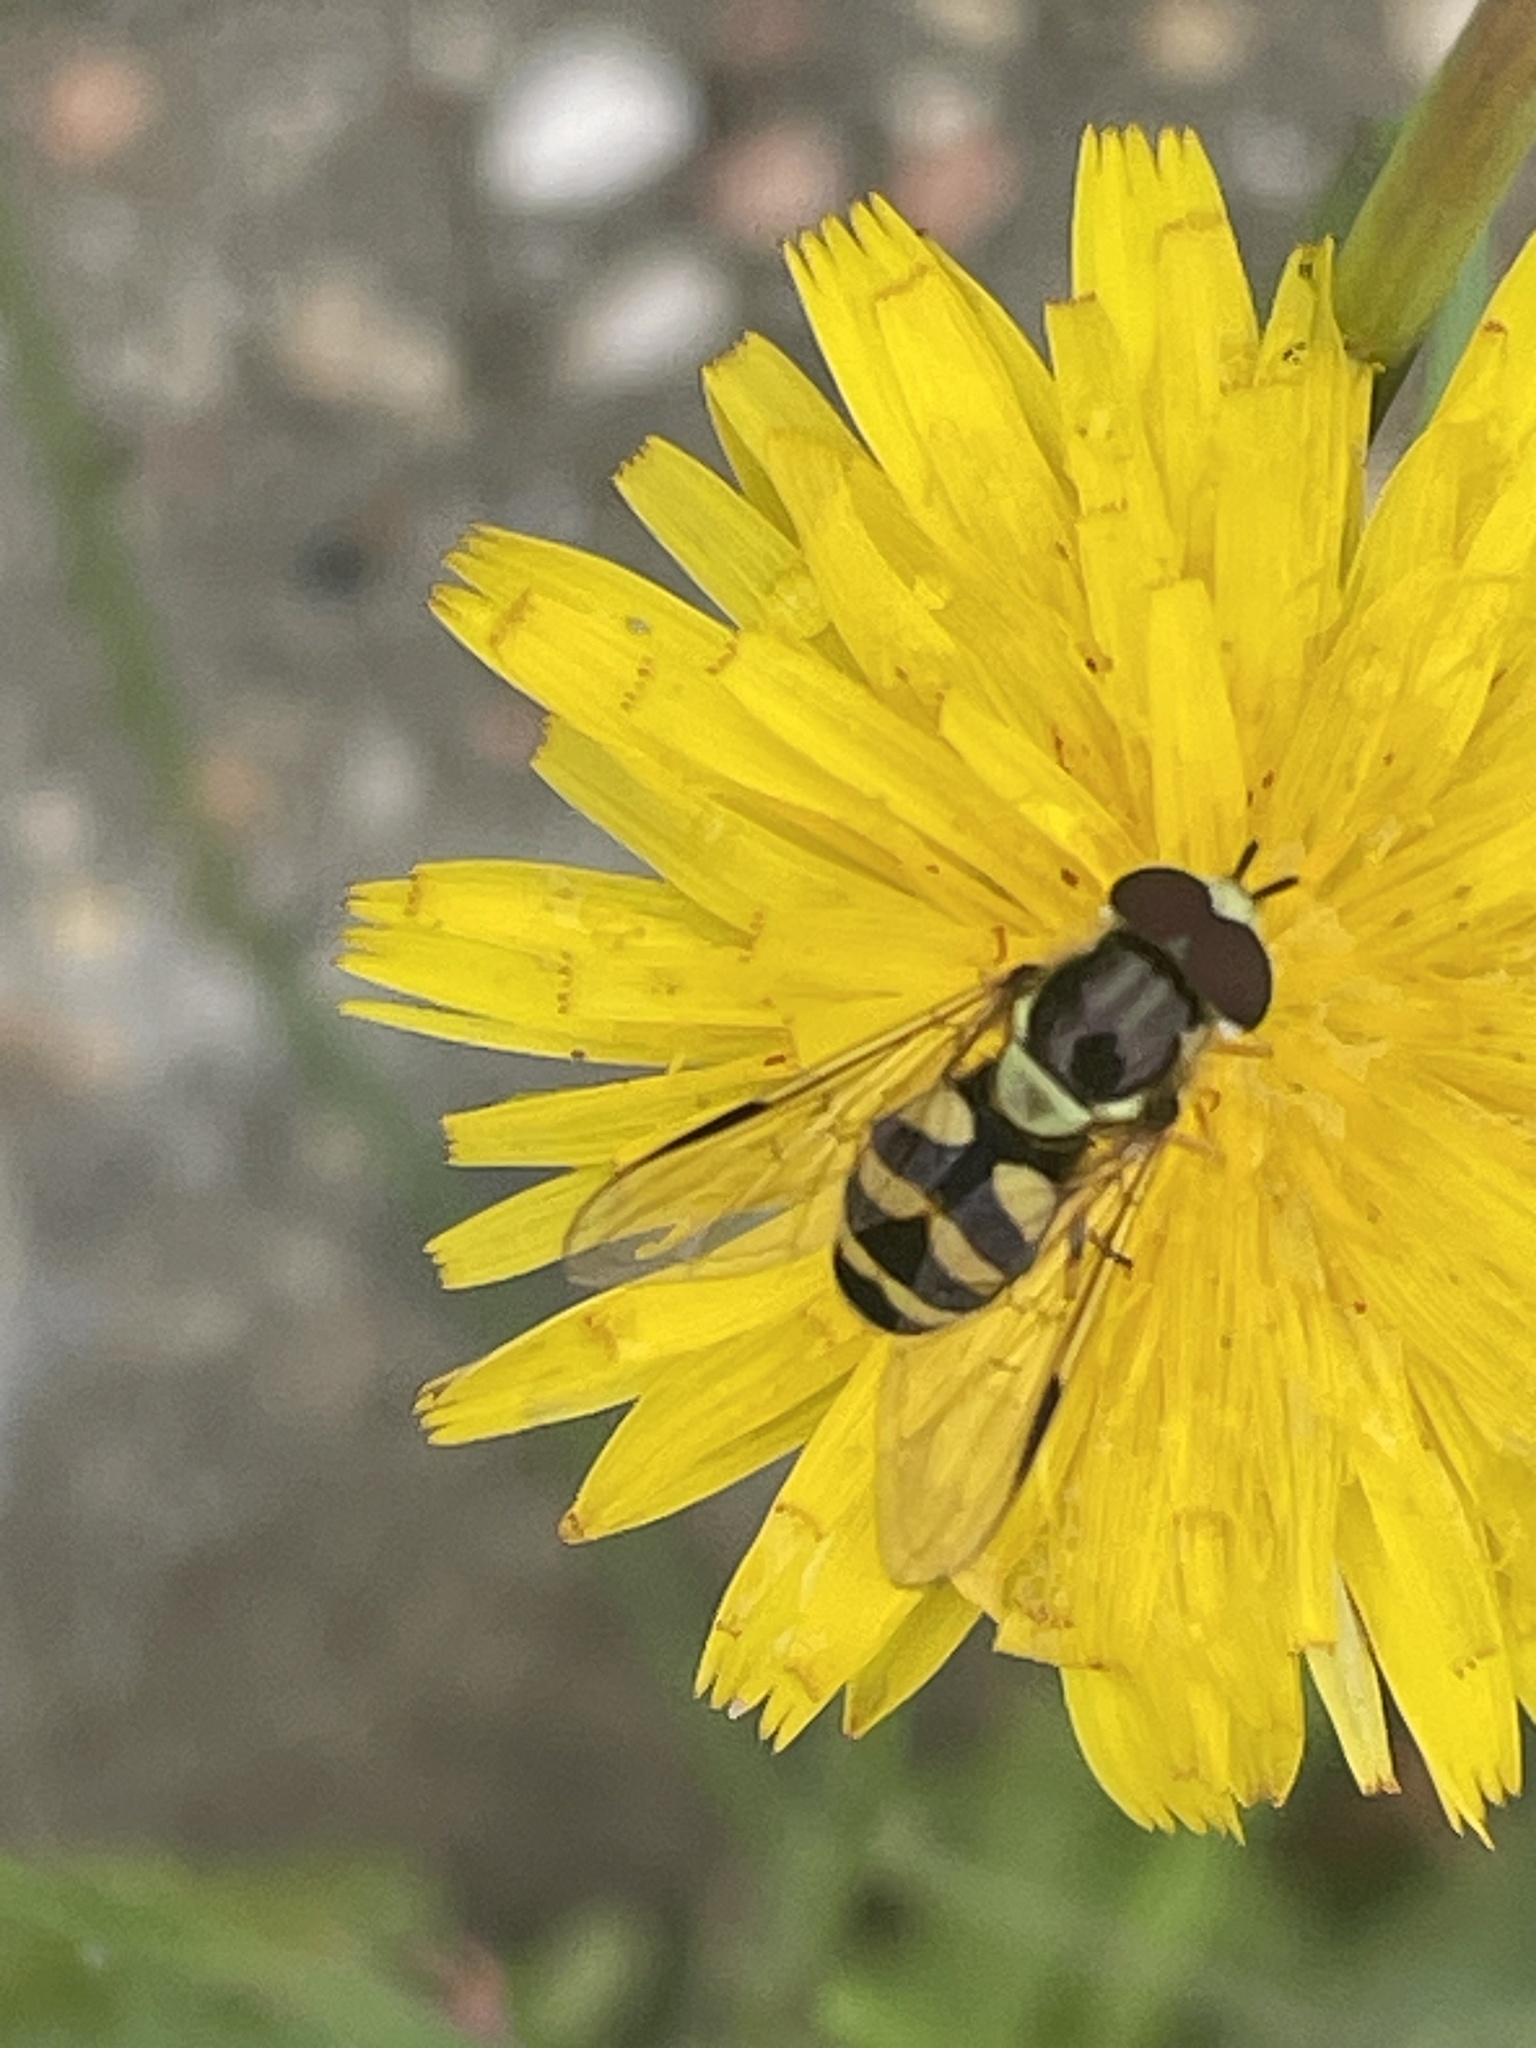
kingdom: Animalia
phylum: Arthropoda
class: Insecta
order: Diptera
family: Syrphidae
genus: Dasysyrphus
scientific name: Dasysyrphus albostriatus
